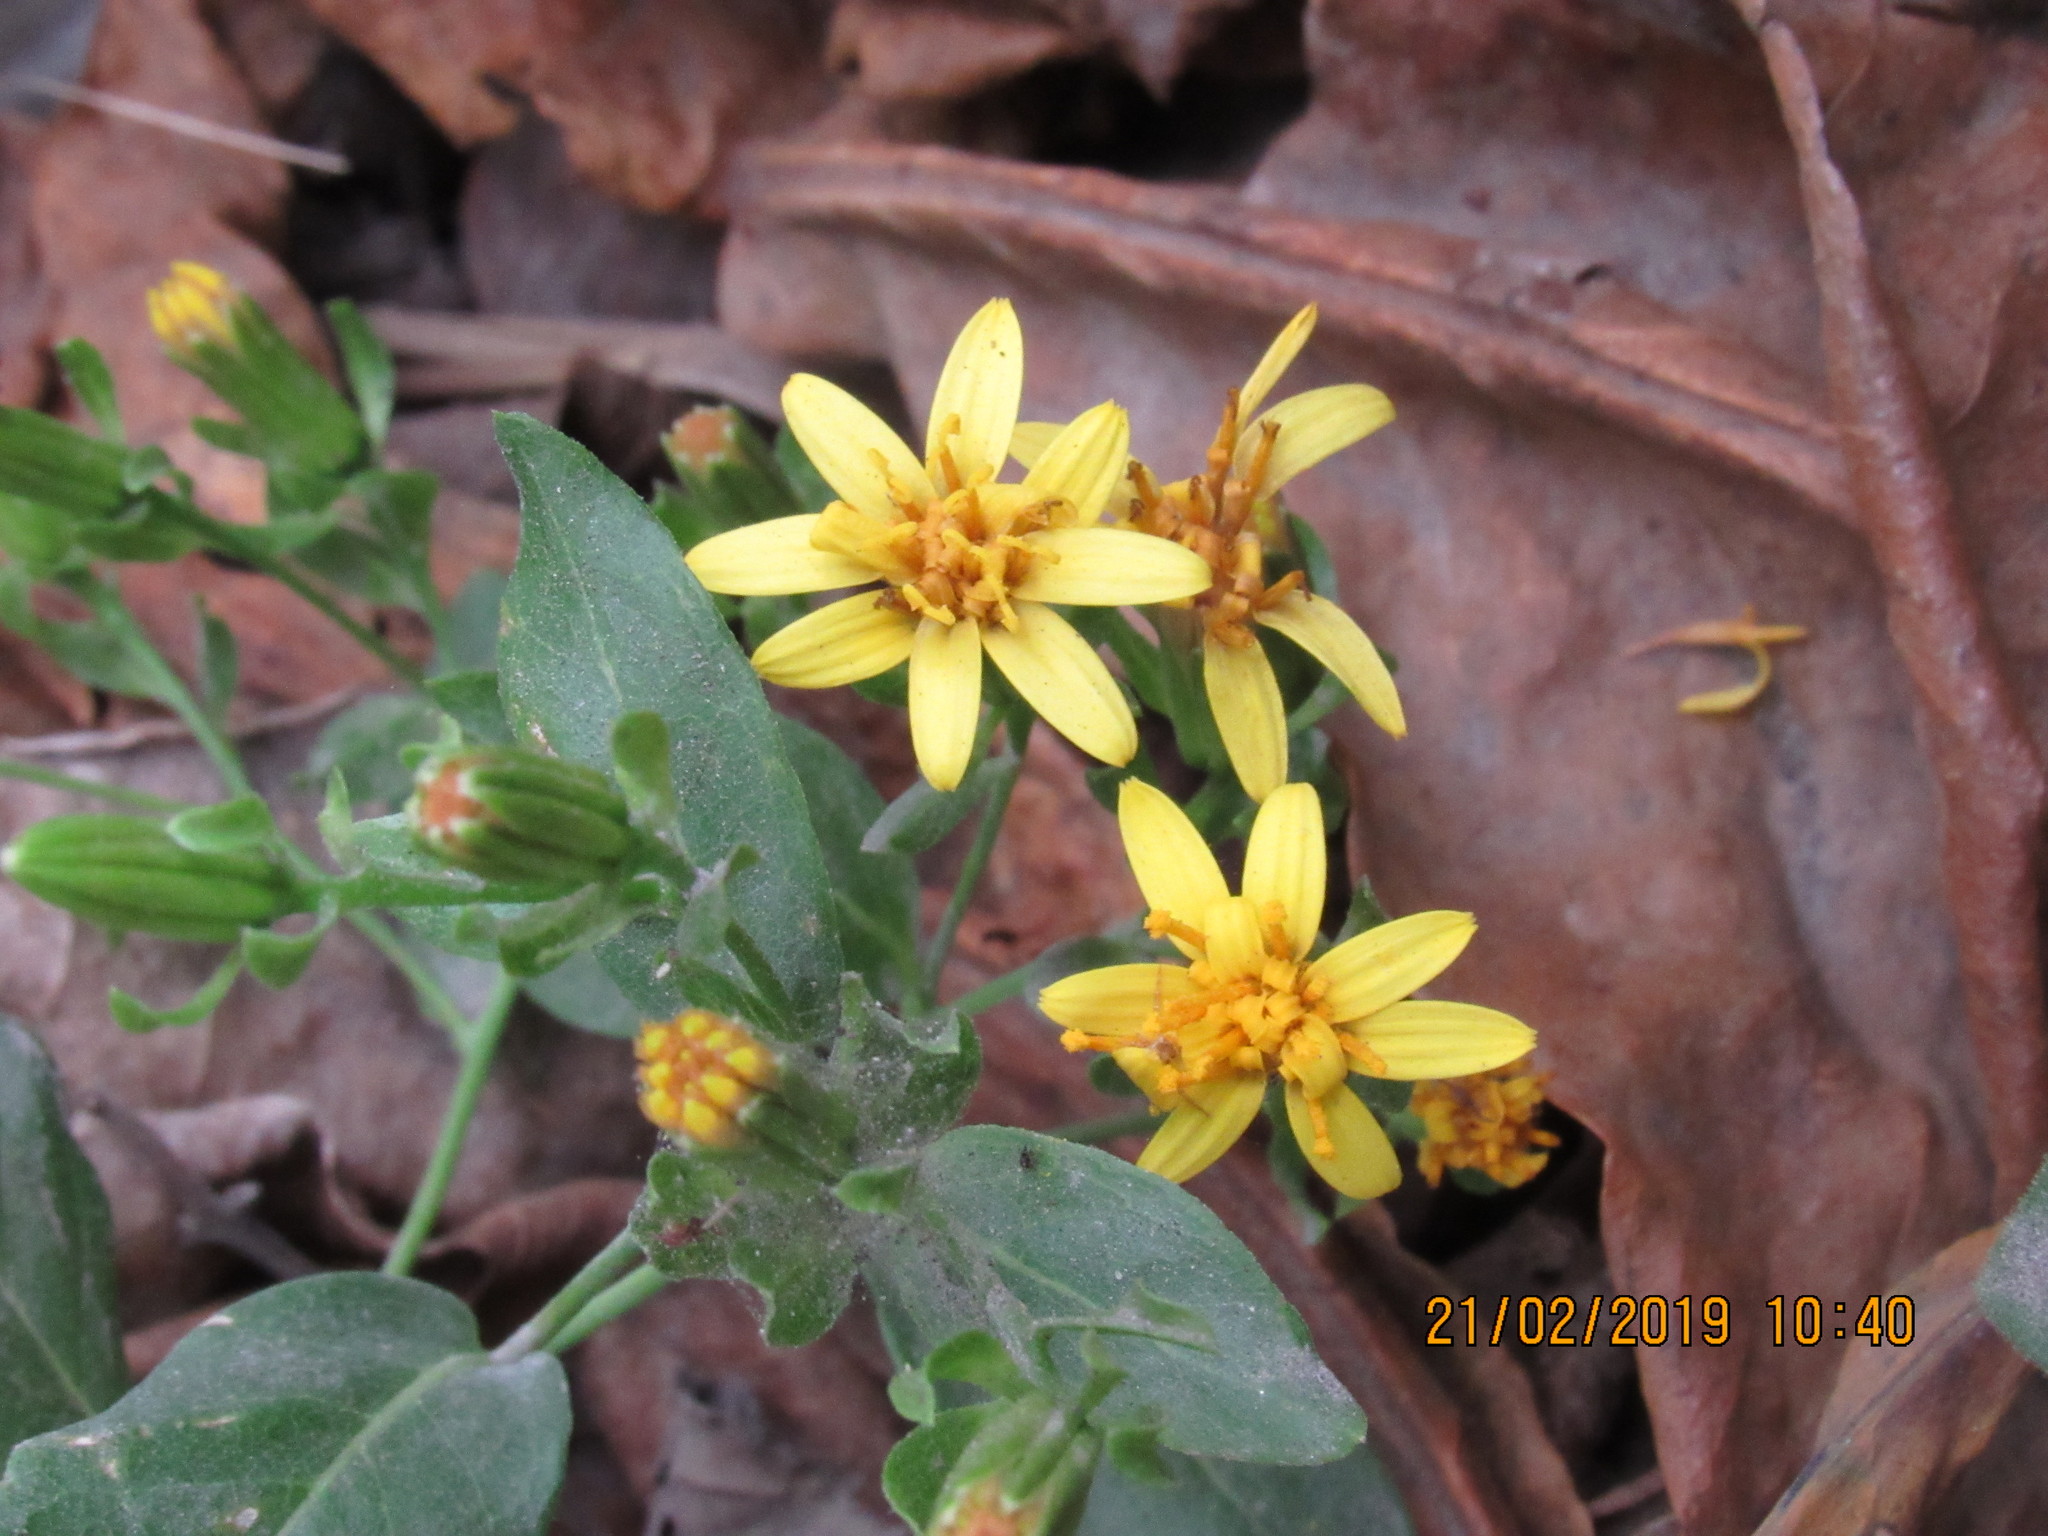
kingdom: Plantae
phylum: Tracheophyta
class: Magnoliopsida
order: Asterales
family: Asteraceae
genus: Trixis
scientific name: Trixis inula
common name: Tropical threefold
